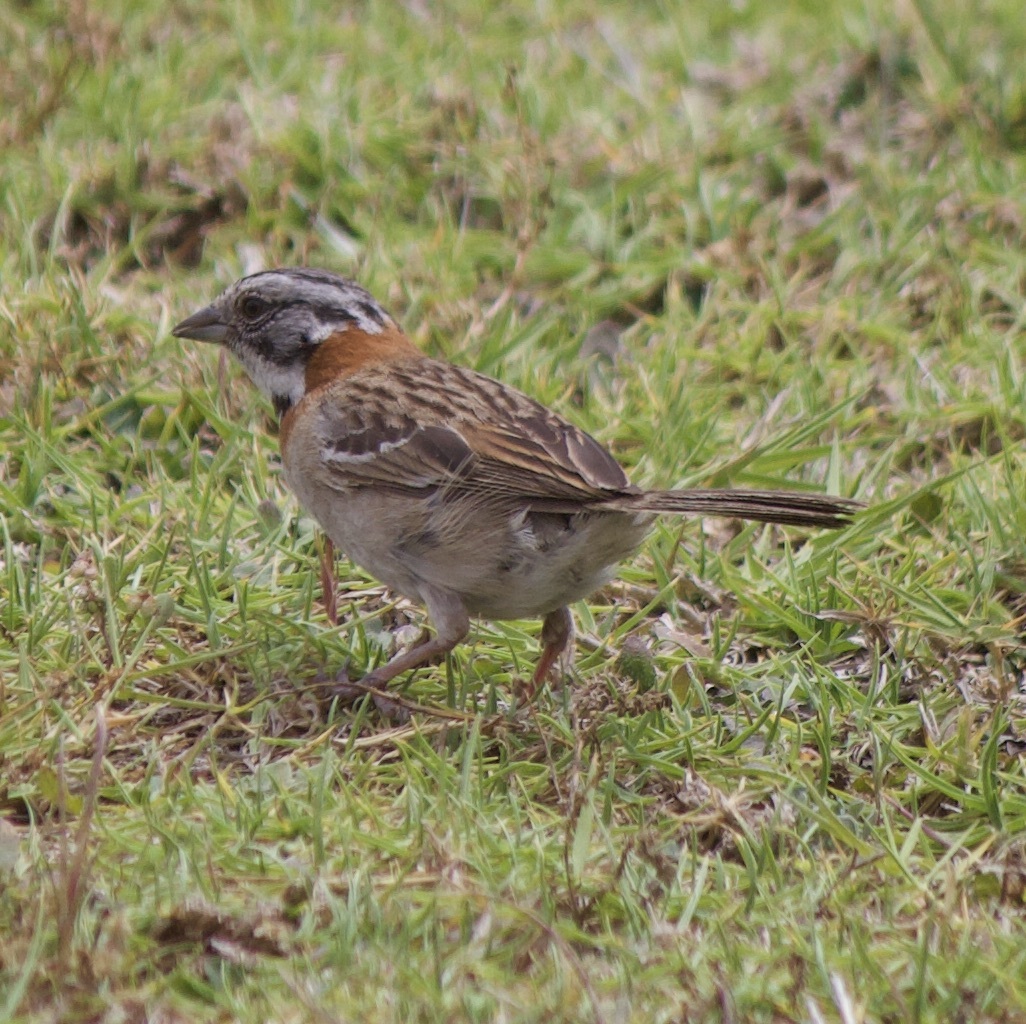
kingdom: Animalia
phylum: Chordata
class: Aves
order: Passeriformes
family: Passerellidae
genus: Zonotrichia
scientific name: Zonotrichia capensis
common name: Rufous-collared sparrow
